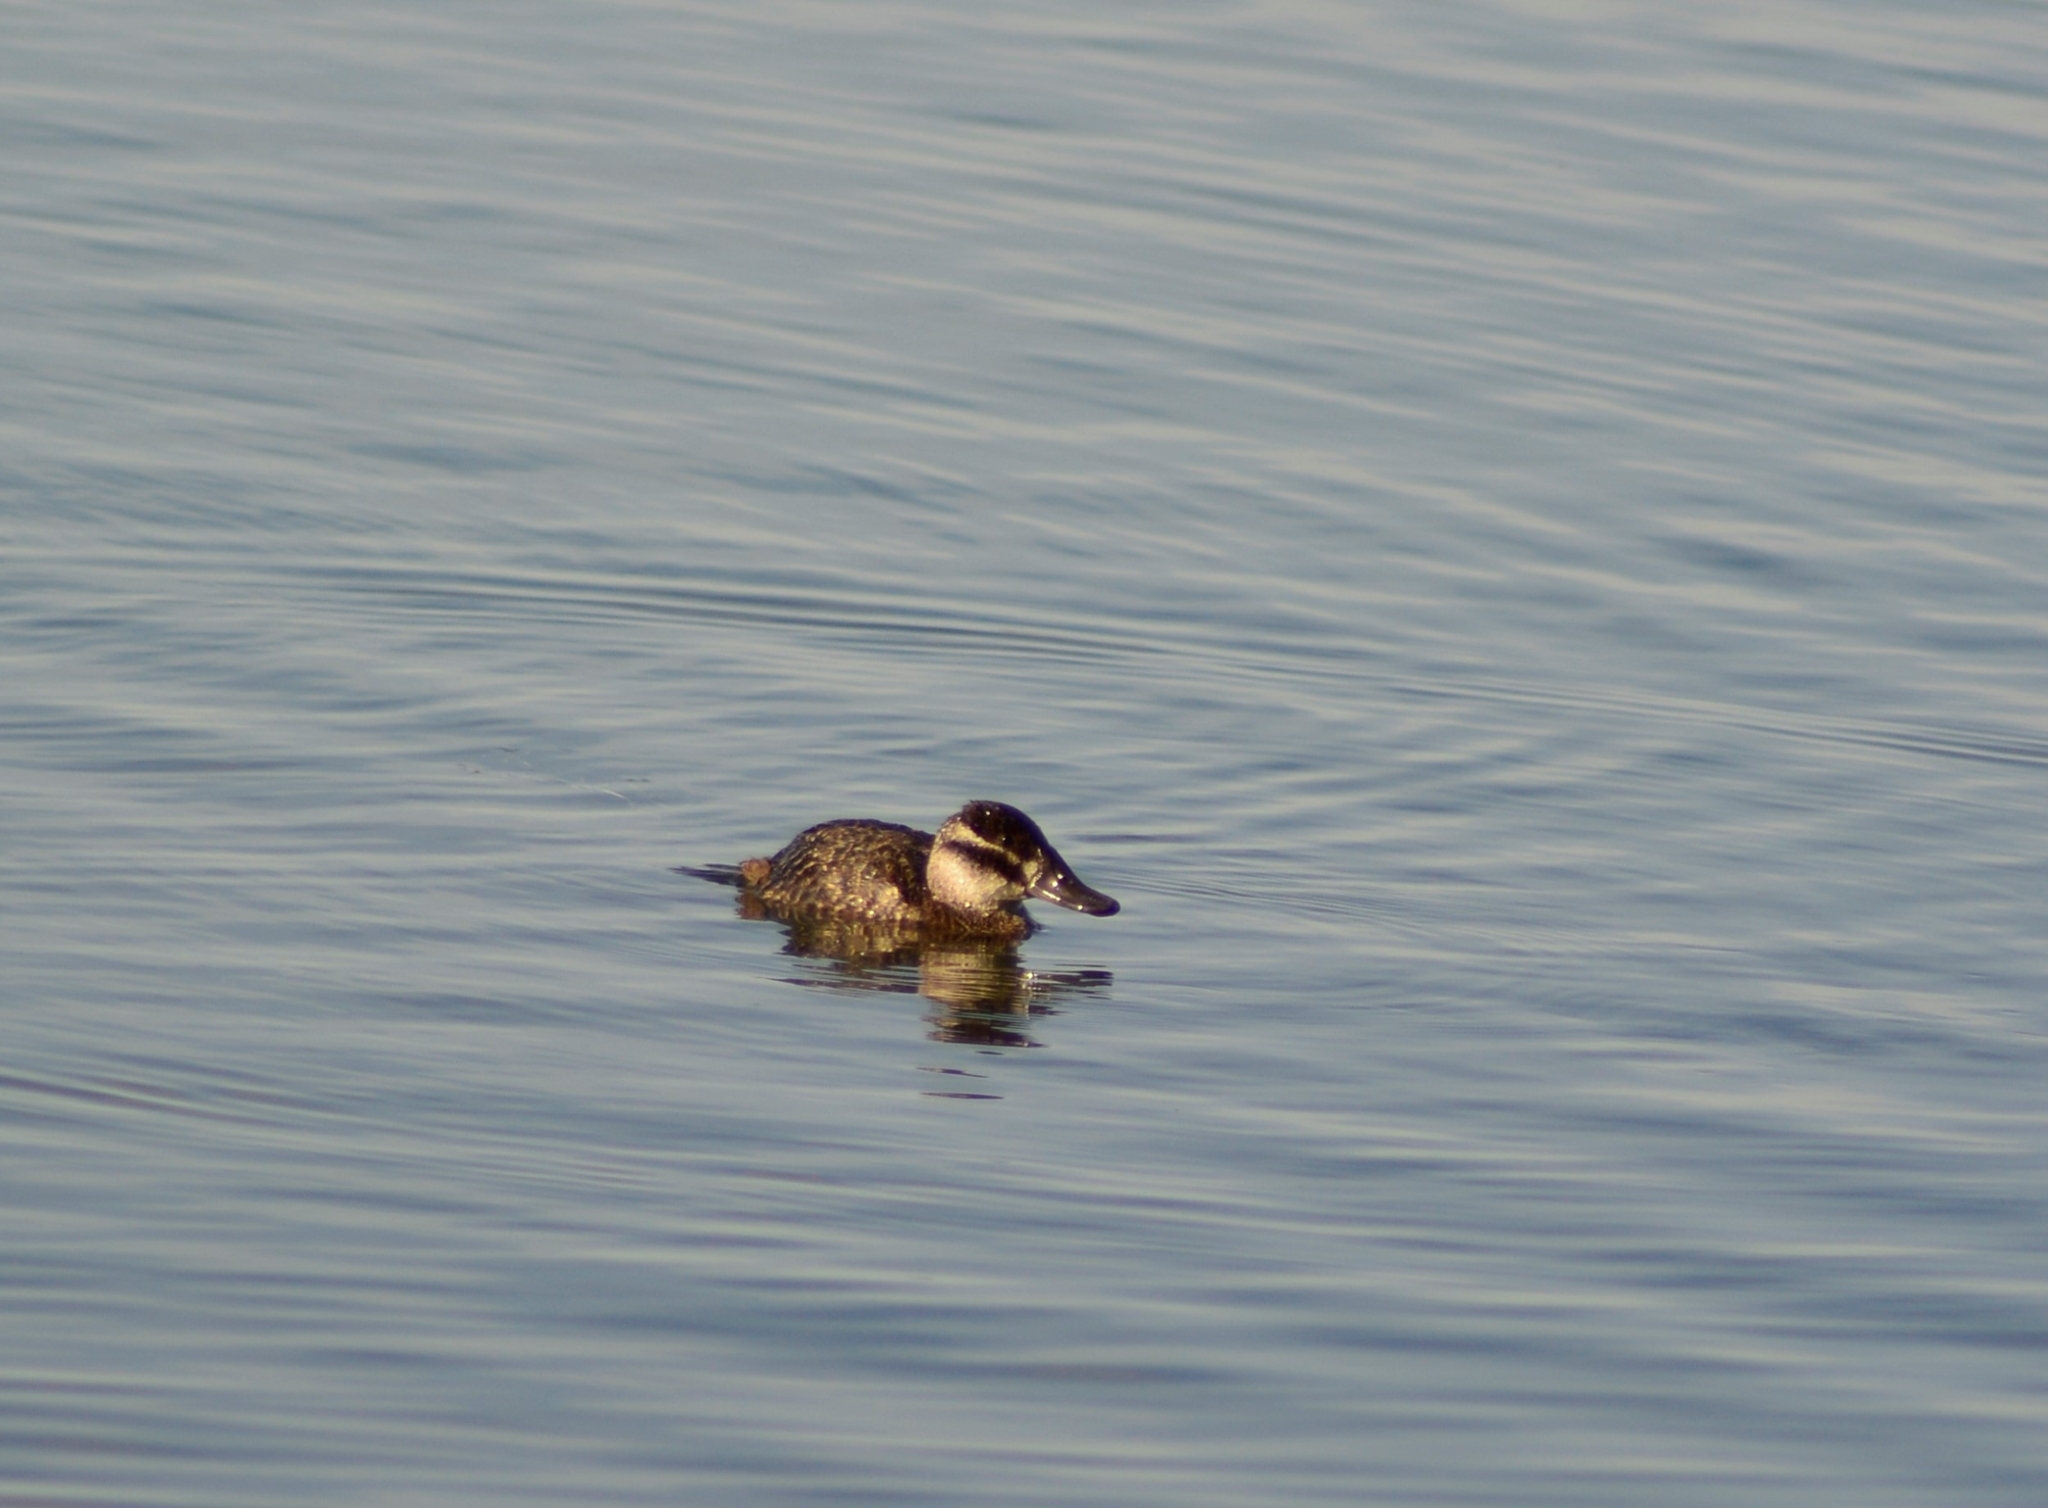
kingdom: Animalia
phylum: Chordata
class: Aves
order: Anseriformes
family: Anatidae
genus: Oxyura
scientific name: Oxyura vittata
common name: Lake duck
